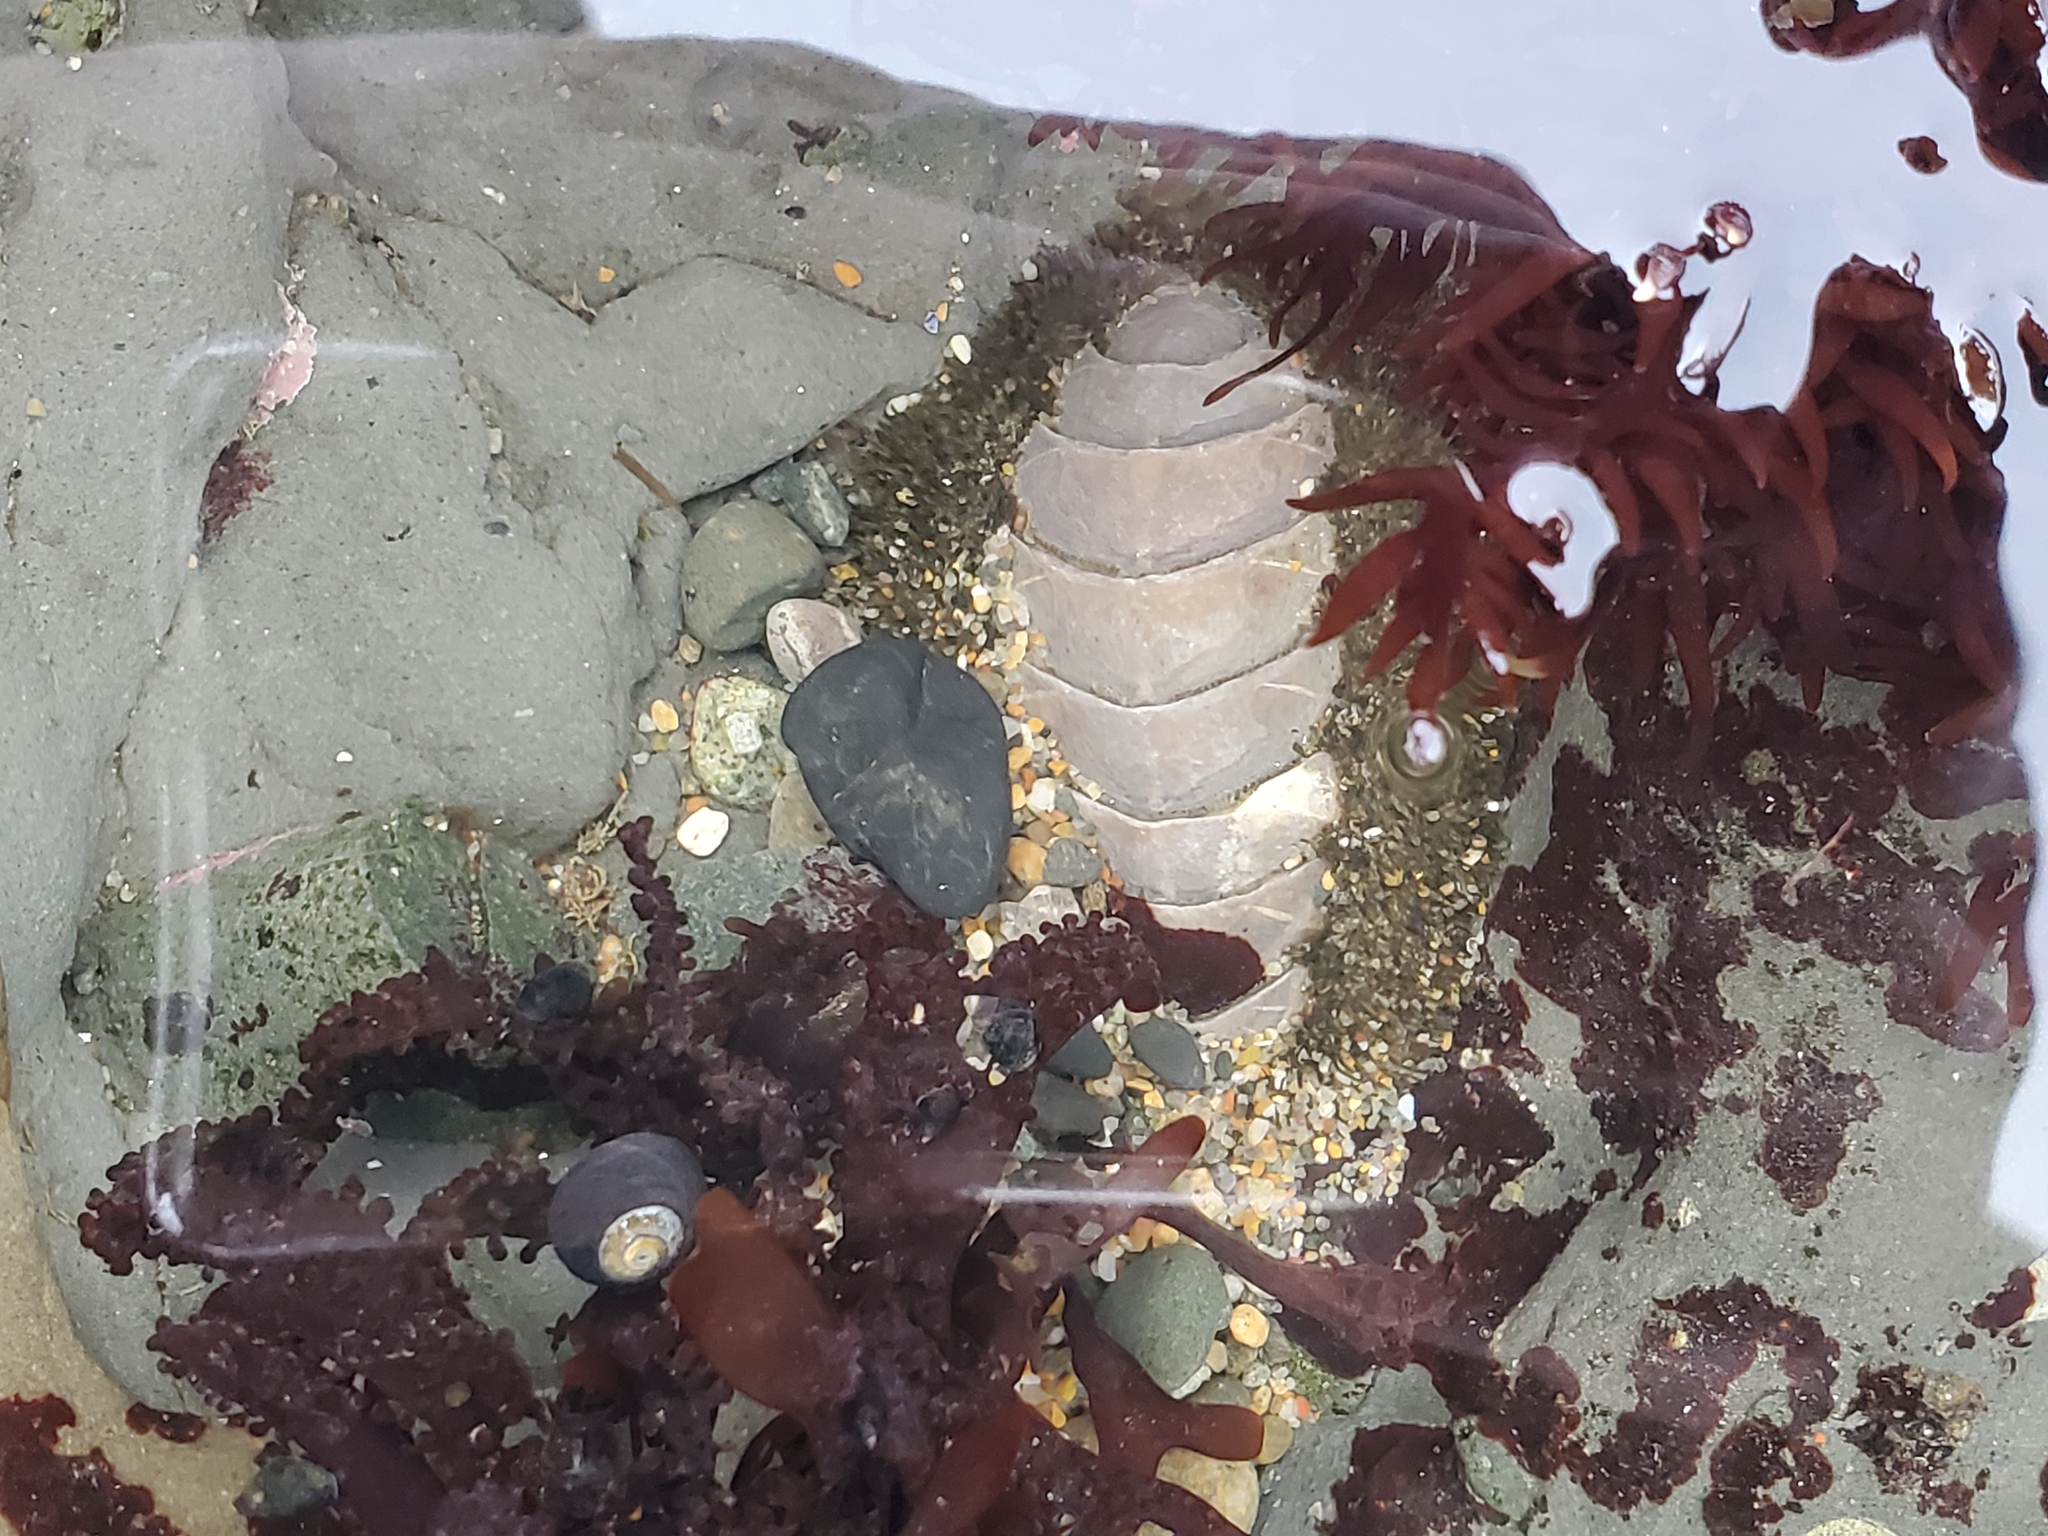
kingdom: Animalia
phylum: Mollusca
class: Polyplacophora
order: Chitonida
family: Mopaliidae
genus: Mopalia
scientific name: Mopalia muscosa
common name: Mossy chiton
